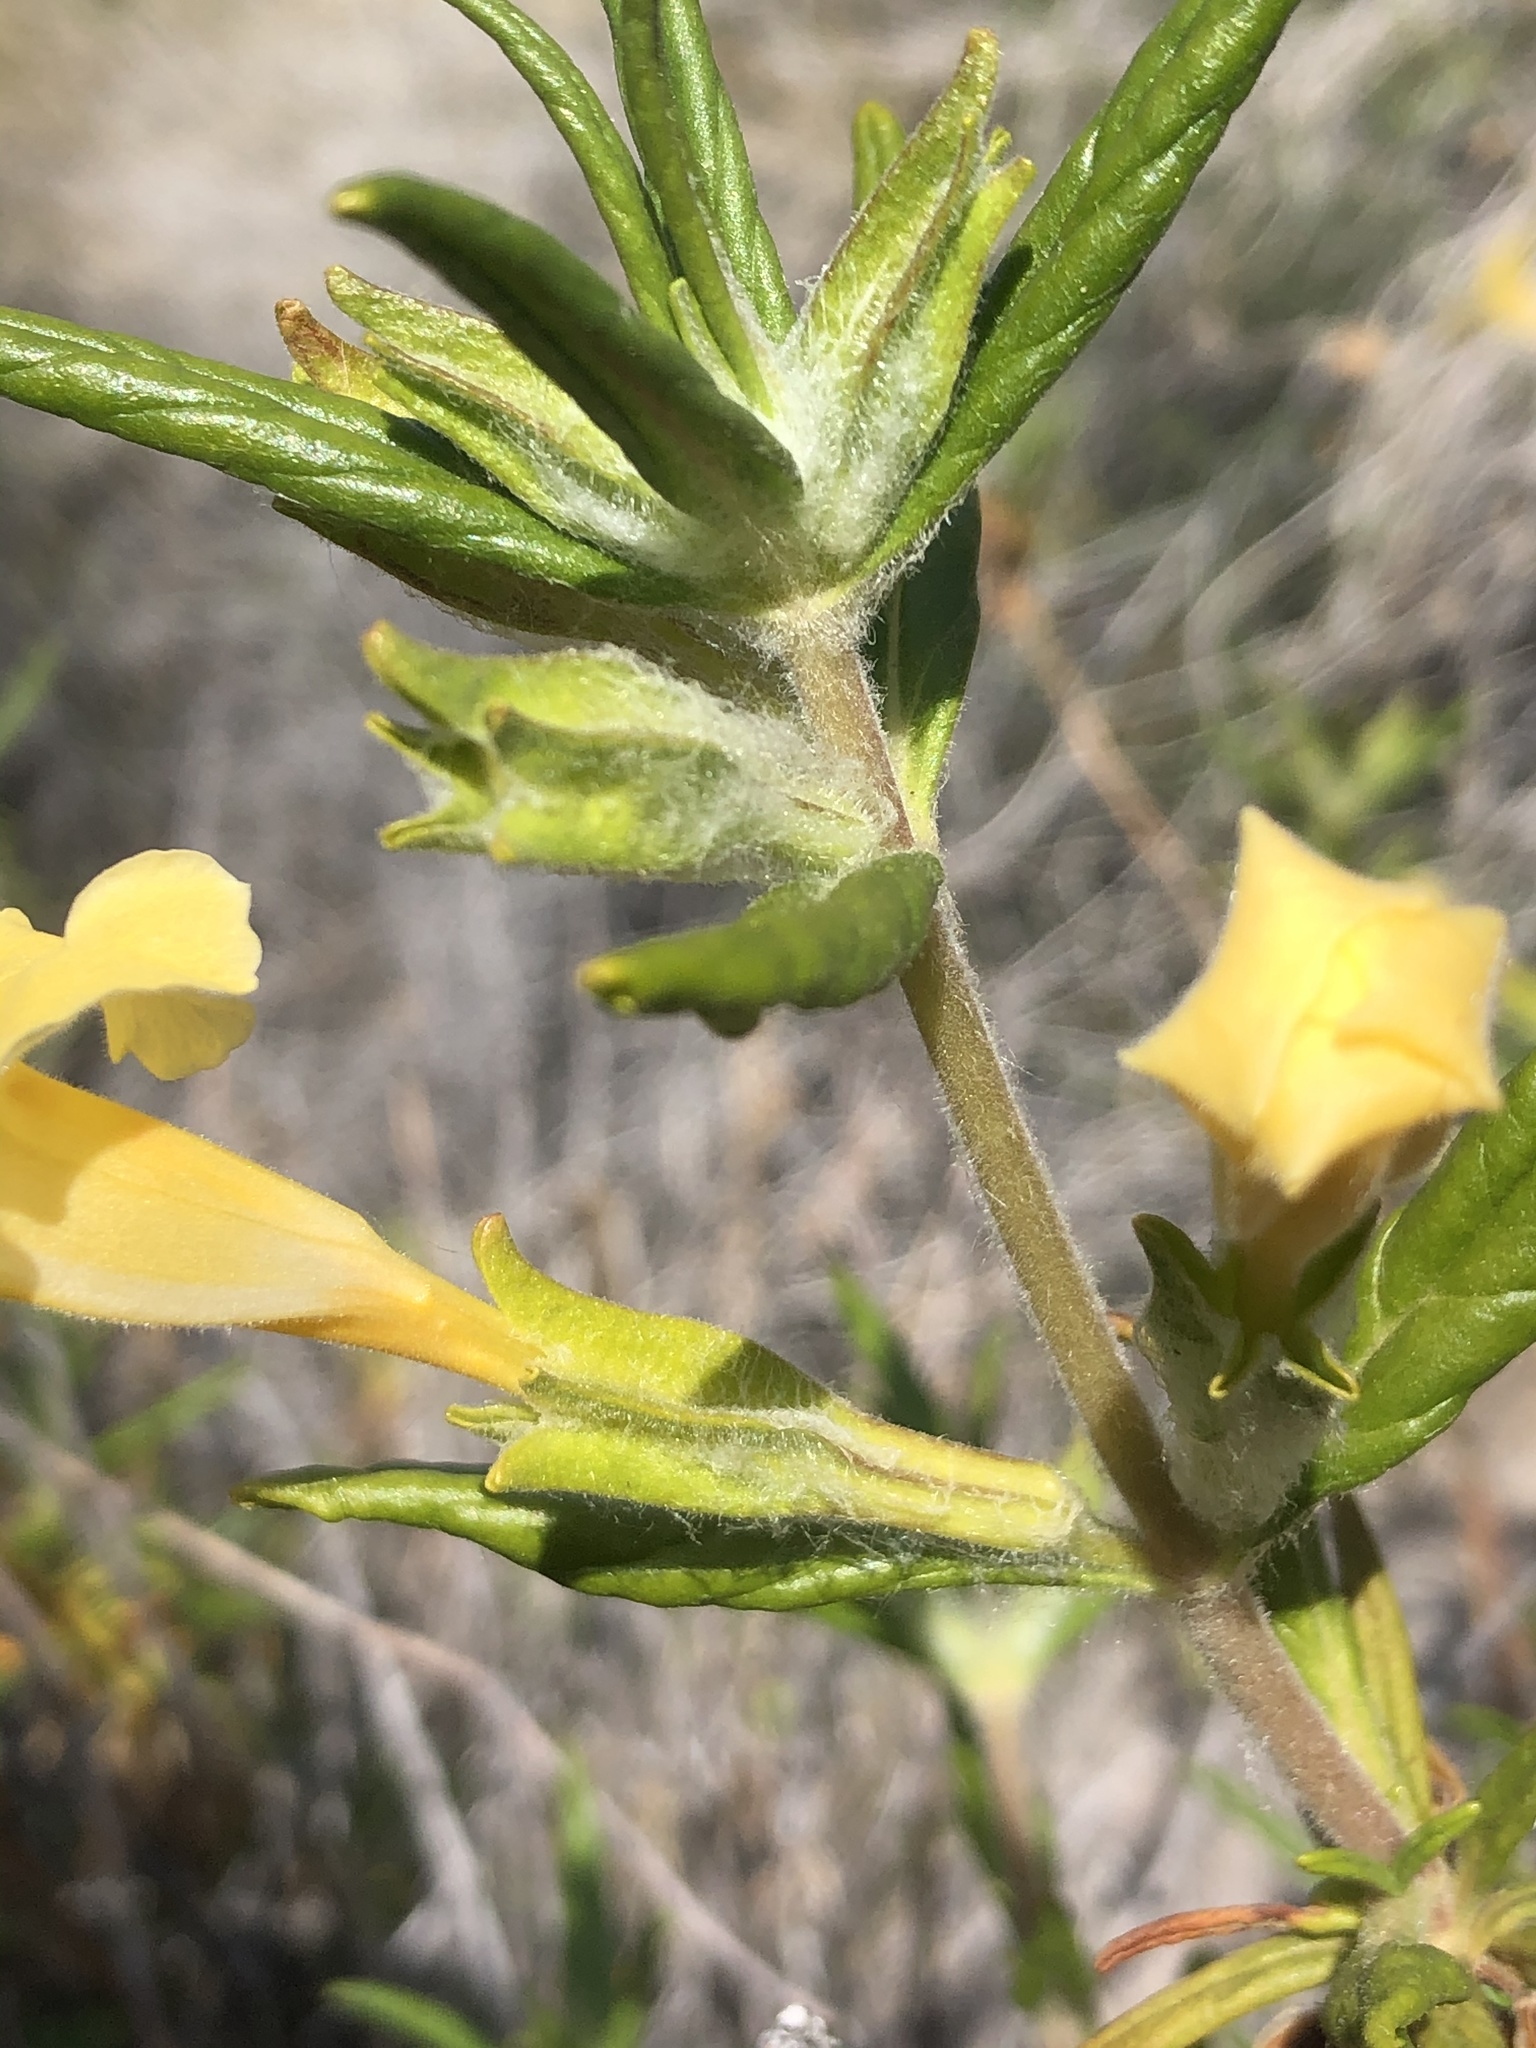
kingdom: Plantae
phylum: Tracheophyta
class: Magnoliopsida
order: Lamiales
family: Phrymaceae
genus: Diplacus
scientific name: Diplacus calycinus
